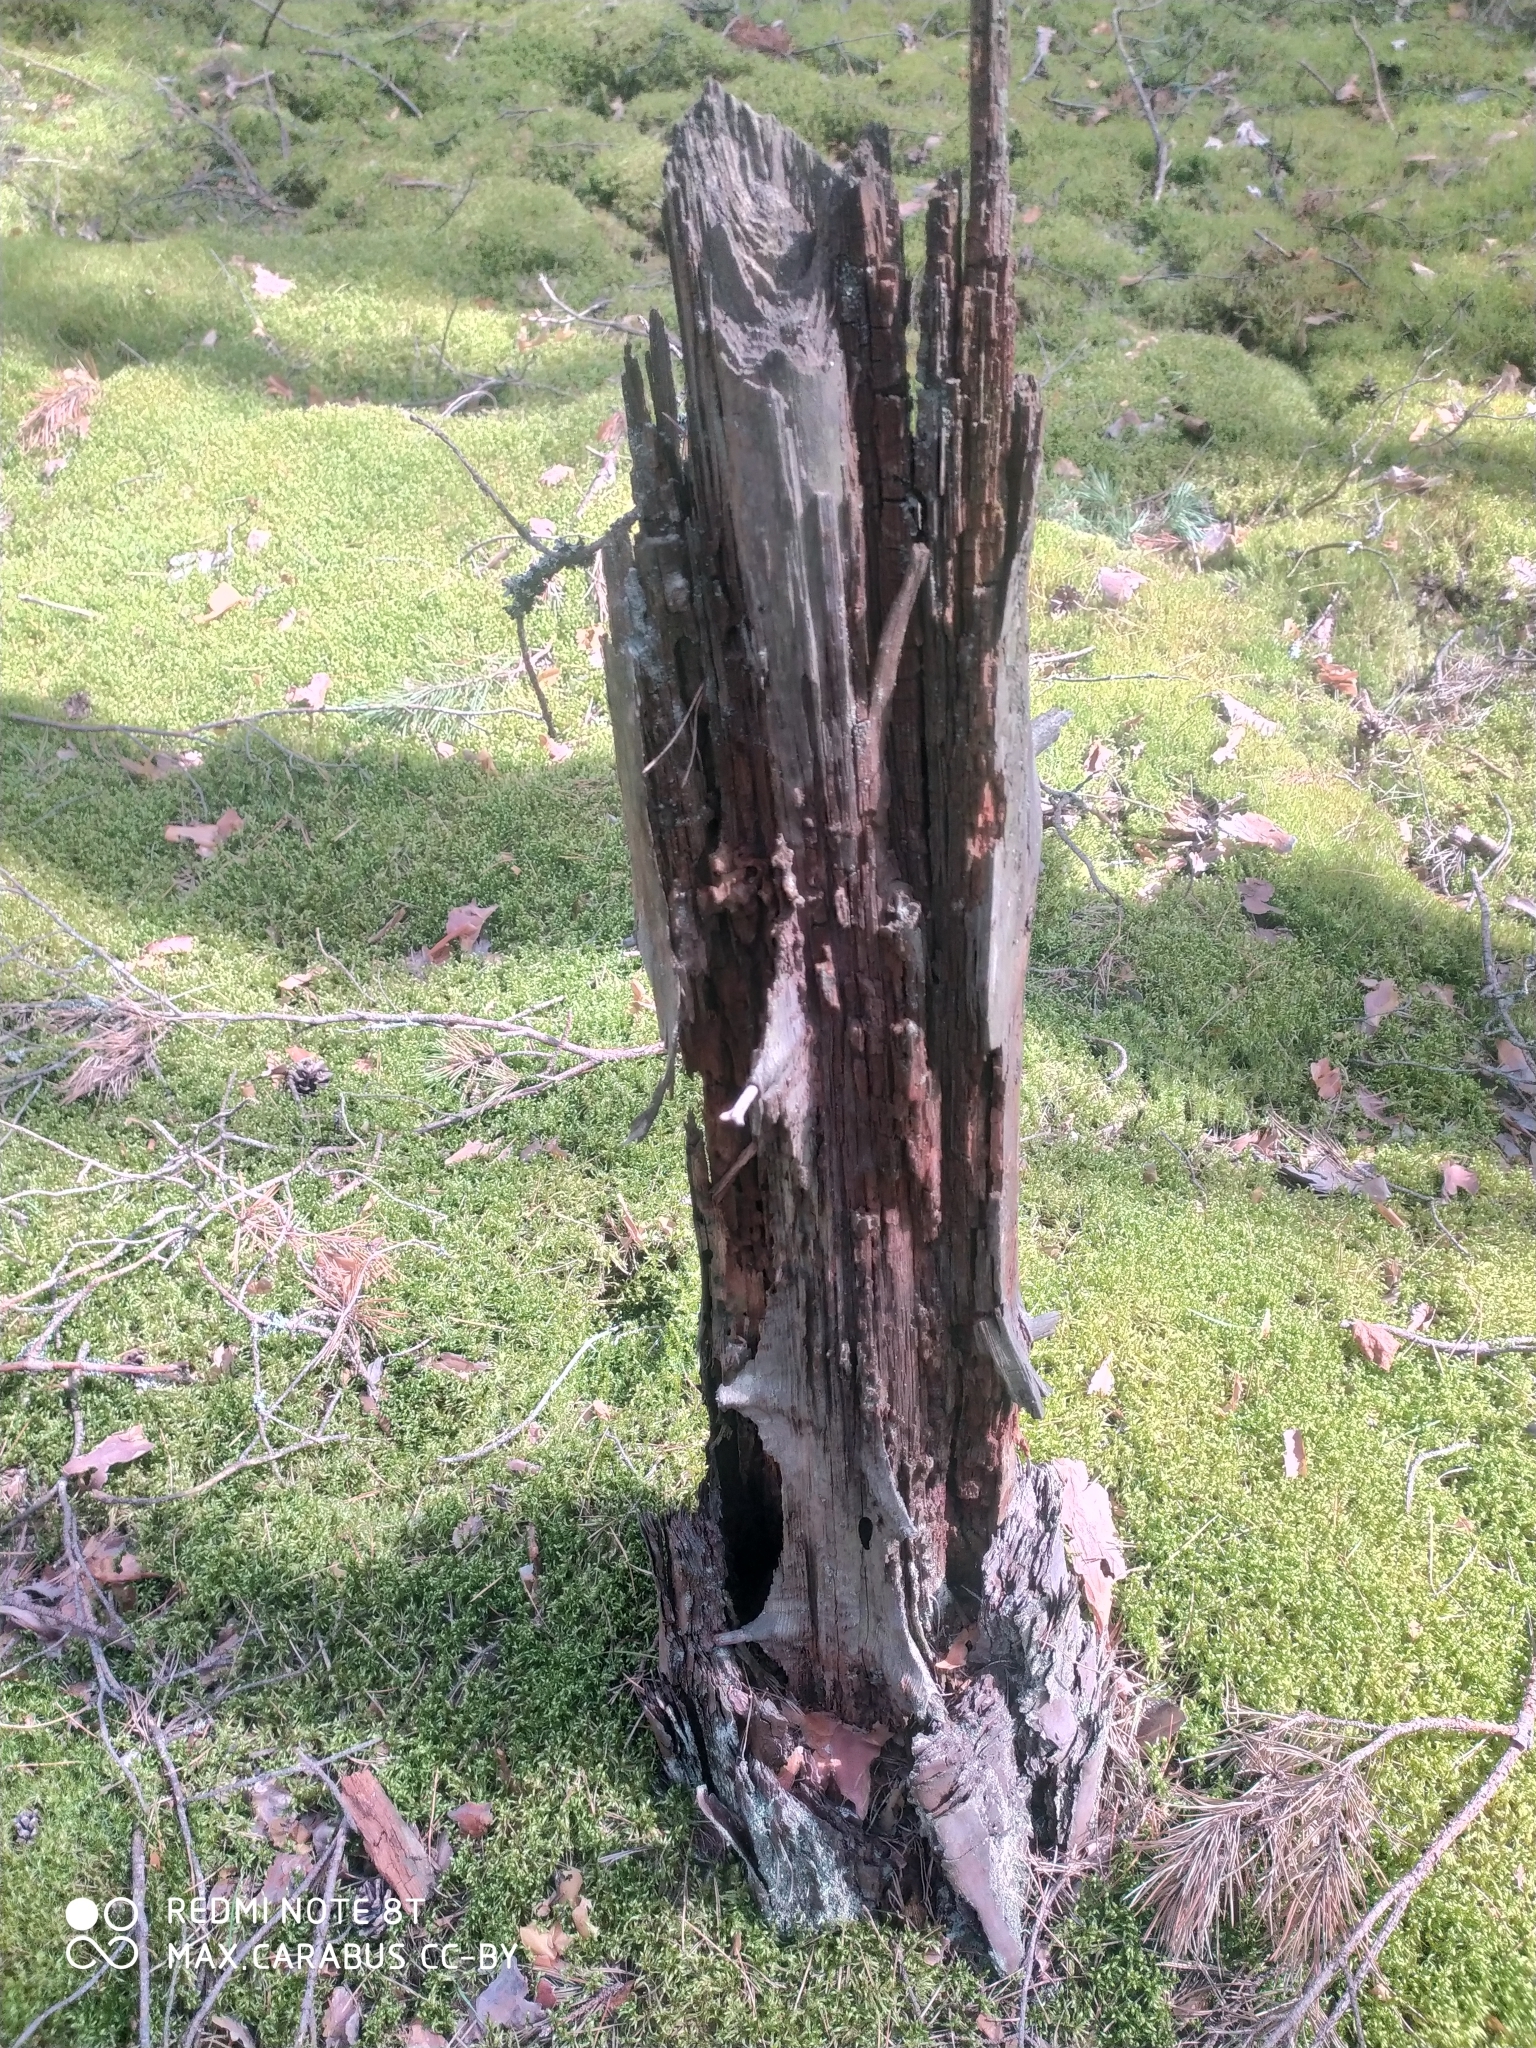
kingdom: Plantae
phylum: Tracheophyta
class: Pinopsida
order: Pinales
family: Pinaceae
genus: Pinus
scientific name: Pinus sylvestris
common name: Scots pine
